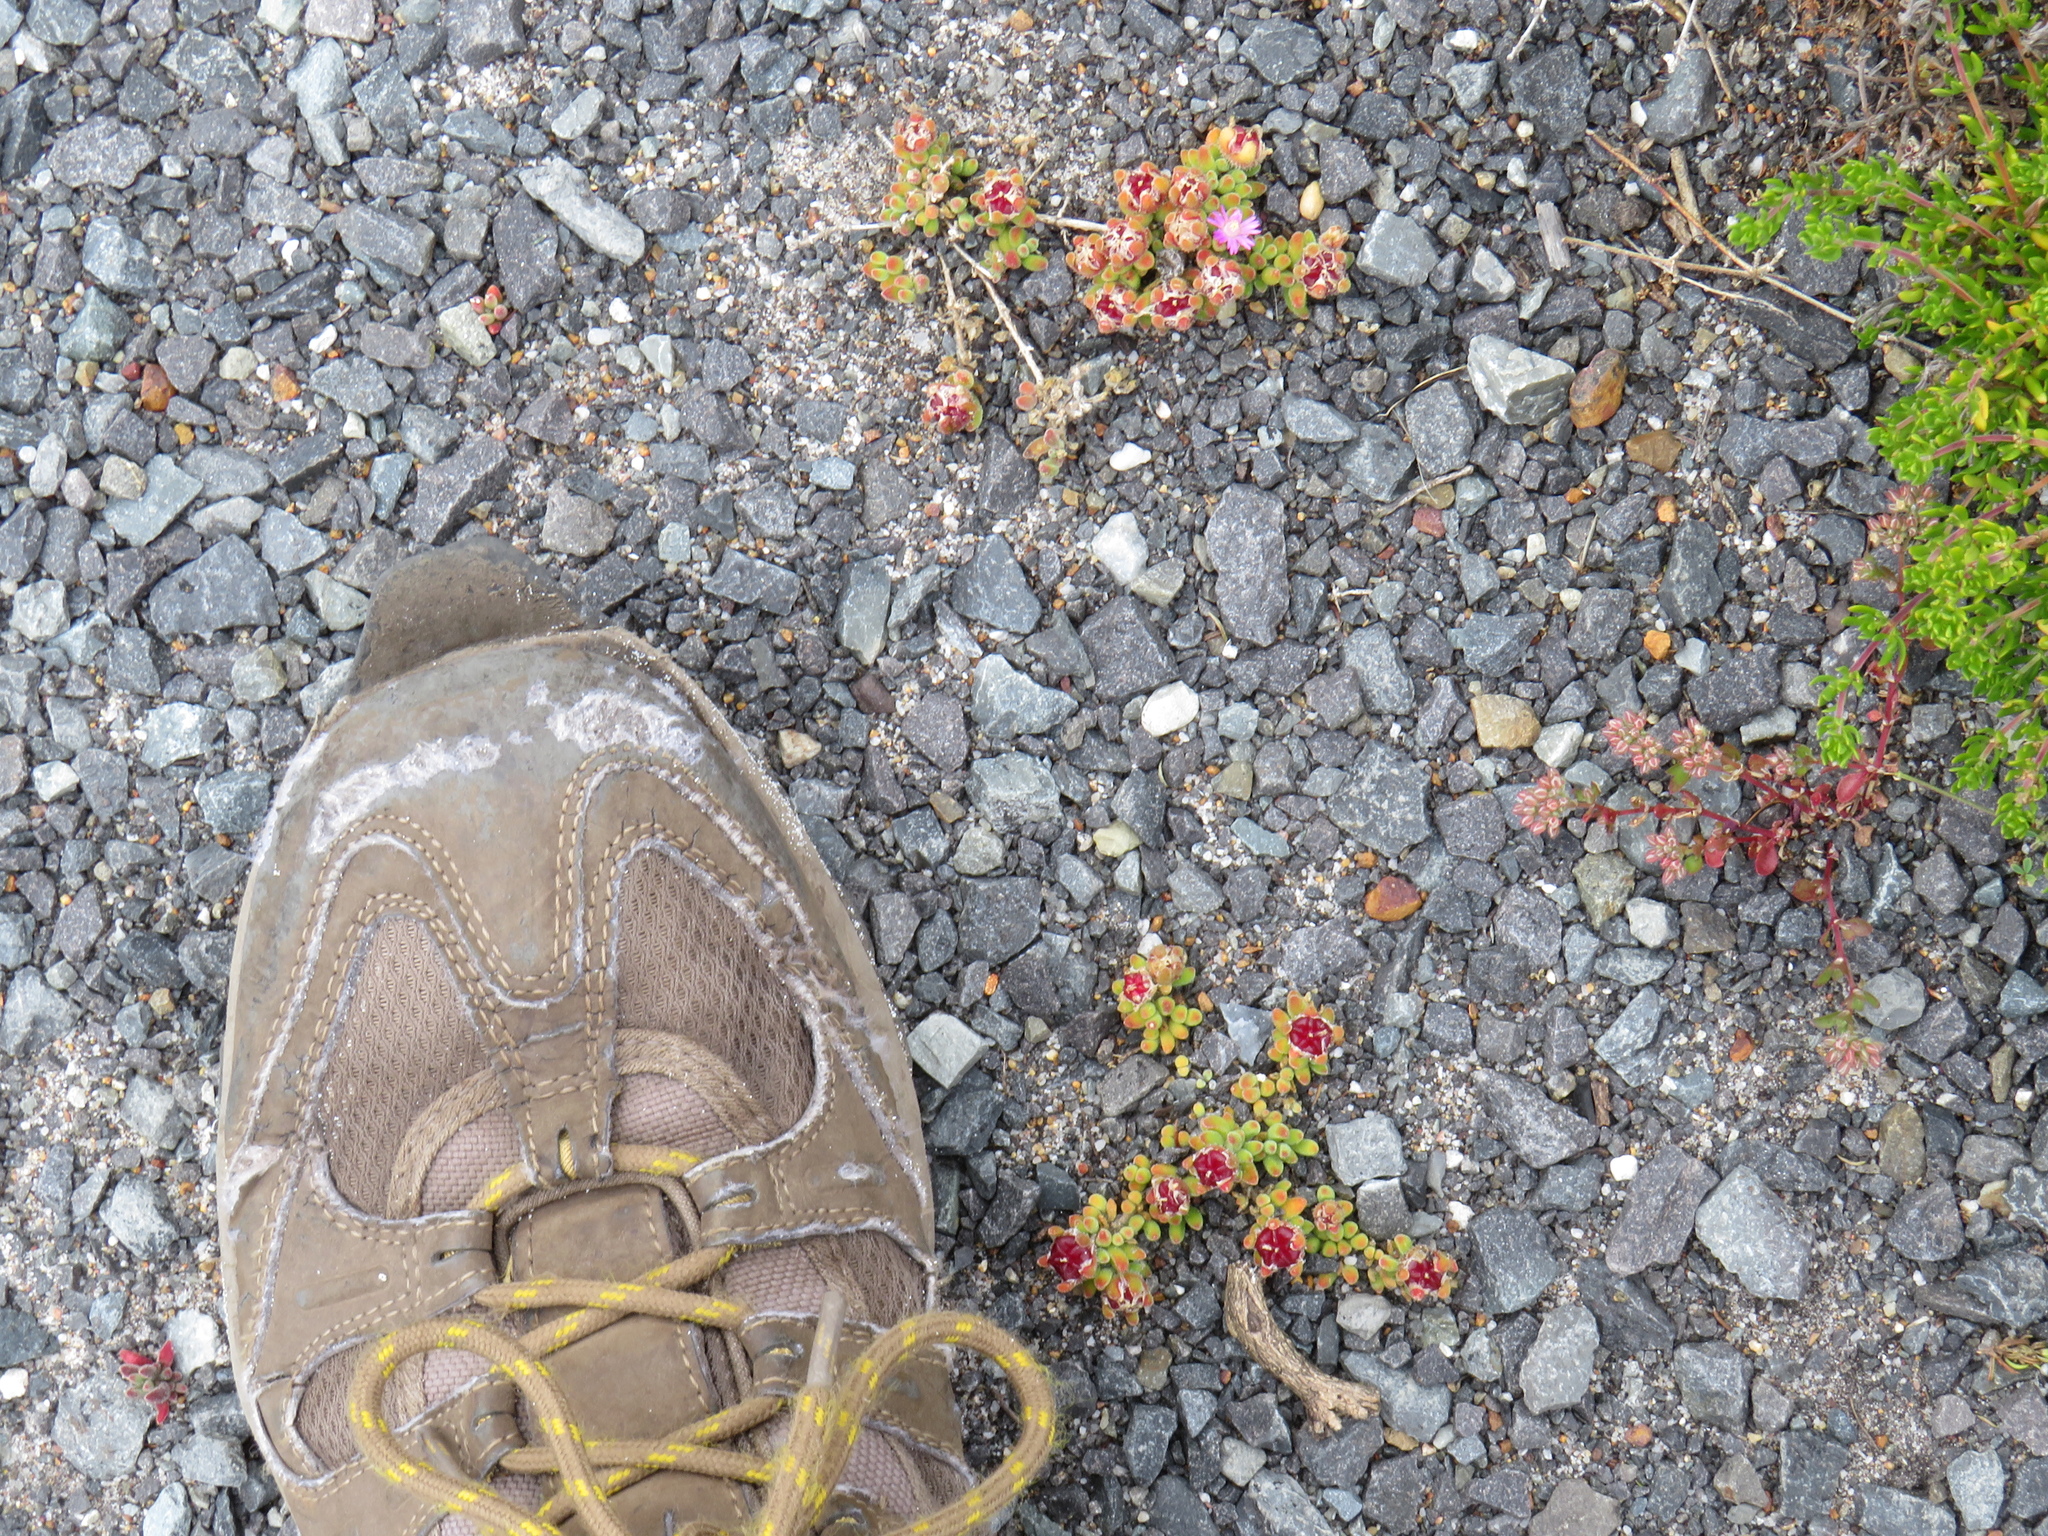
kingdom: Plantae
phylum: Tracheophyta
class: Magnoliopsida
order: Caryophyllales
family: Aizoaceae
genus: Drosanthemum
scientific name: Drosanthemum stokoei
